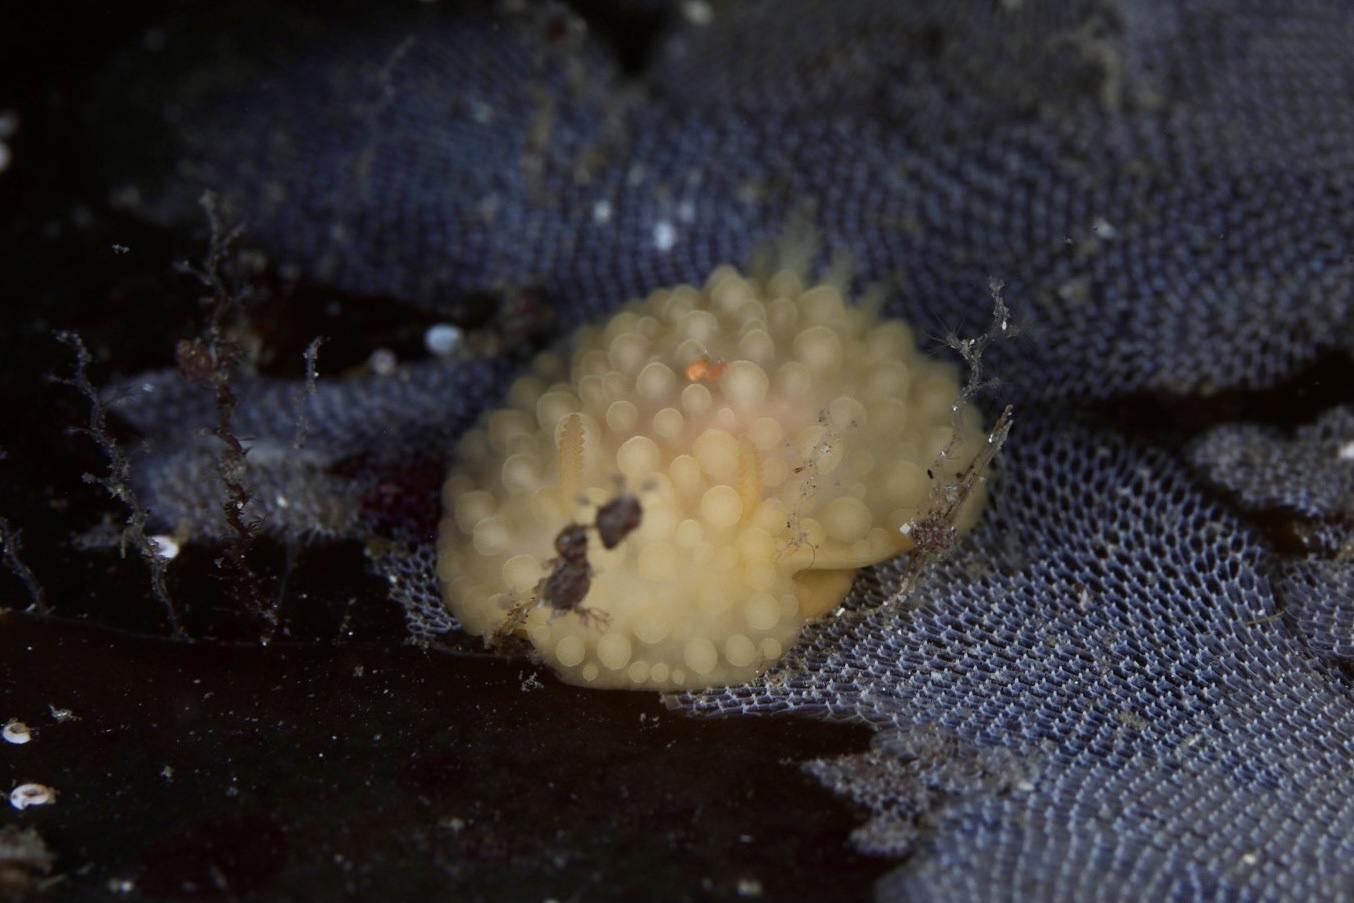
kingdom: Animalia
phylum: Mollusca
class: Gastropoda
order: Nudibranchia
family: Onchidorididae
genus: Adalaria
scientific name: Adalaria proxima
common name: False doris
